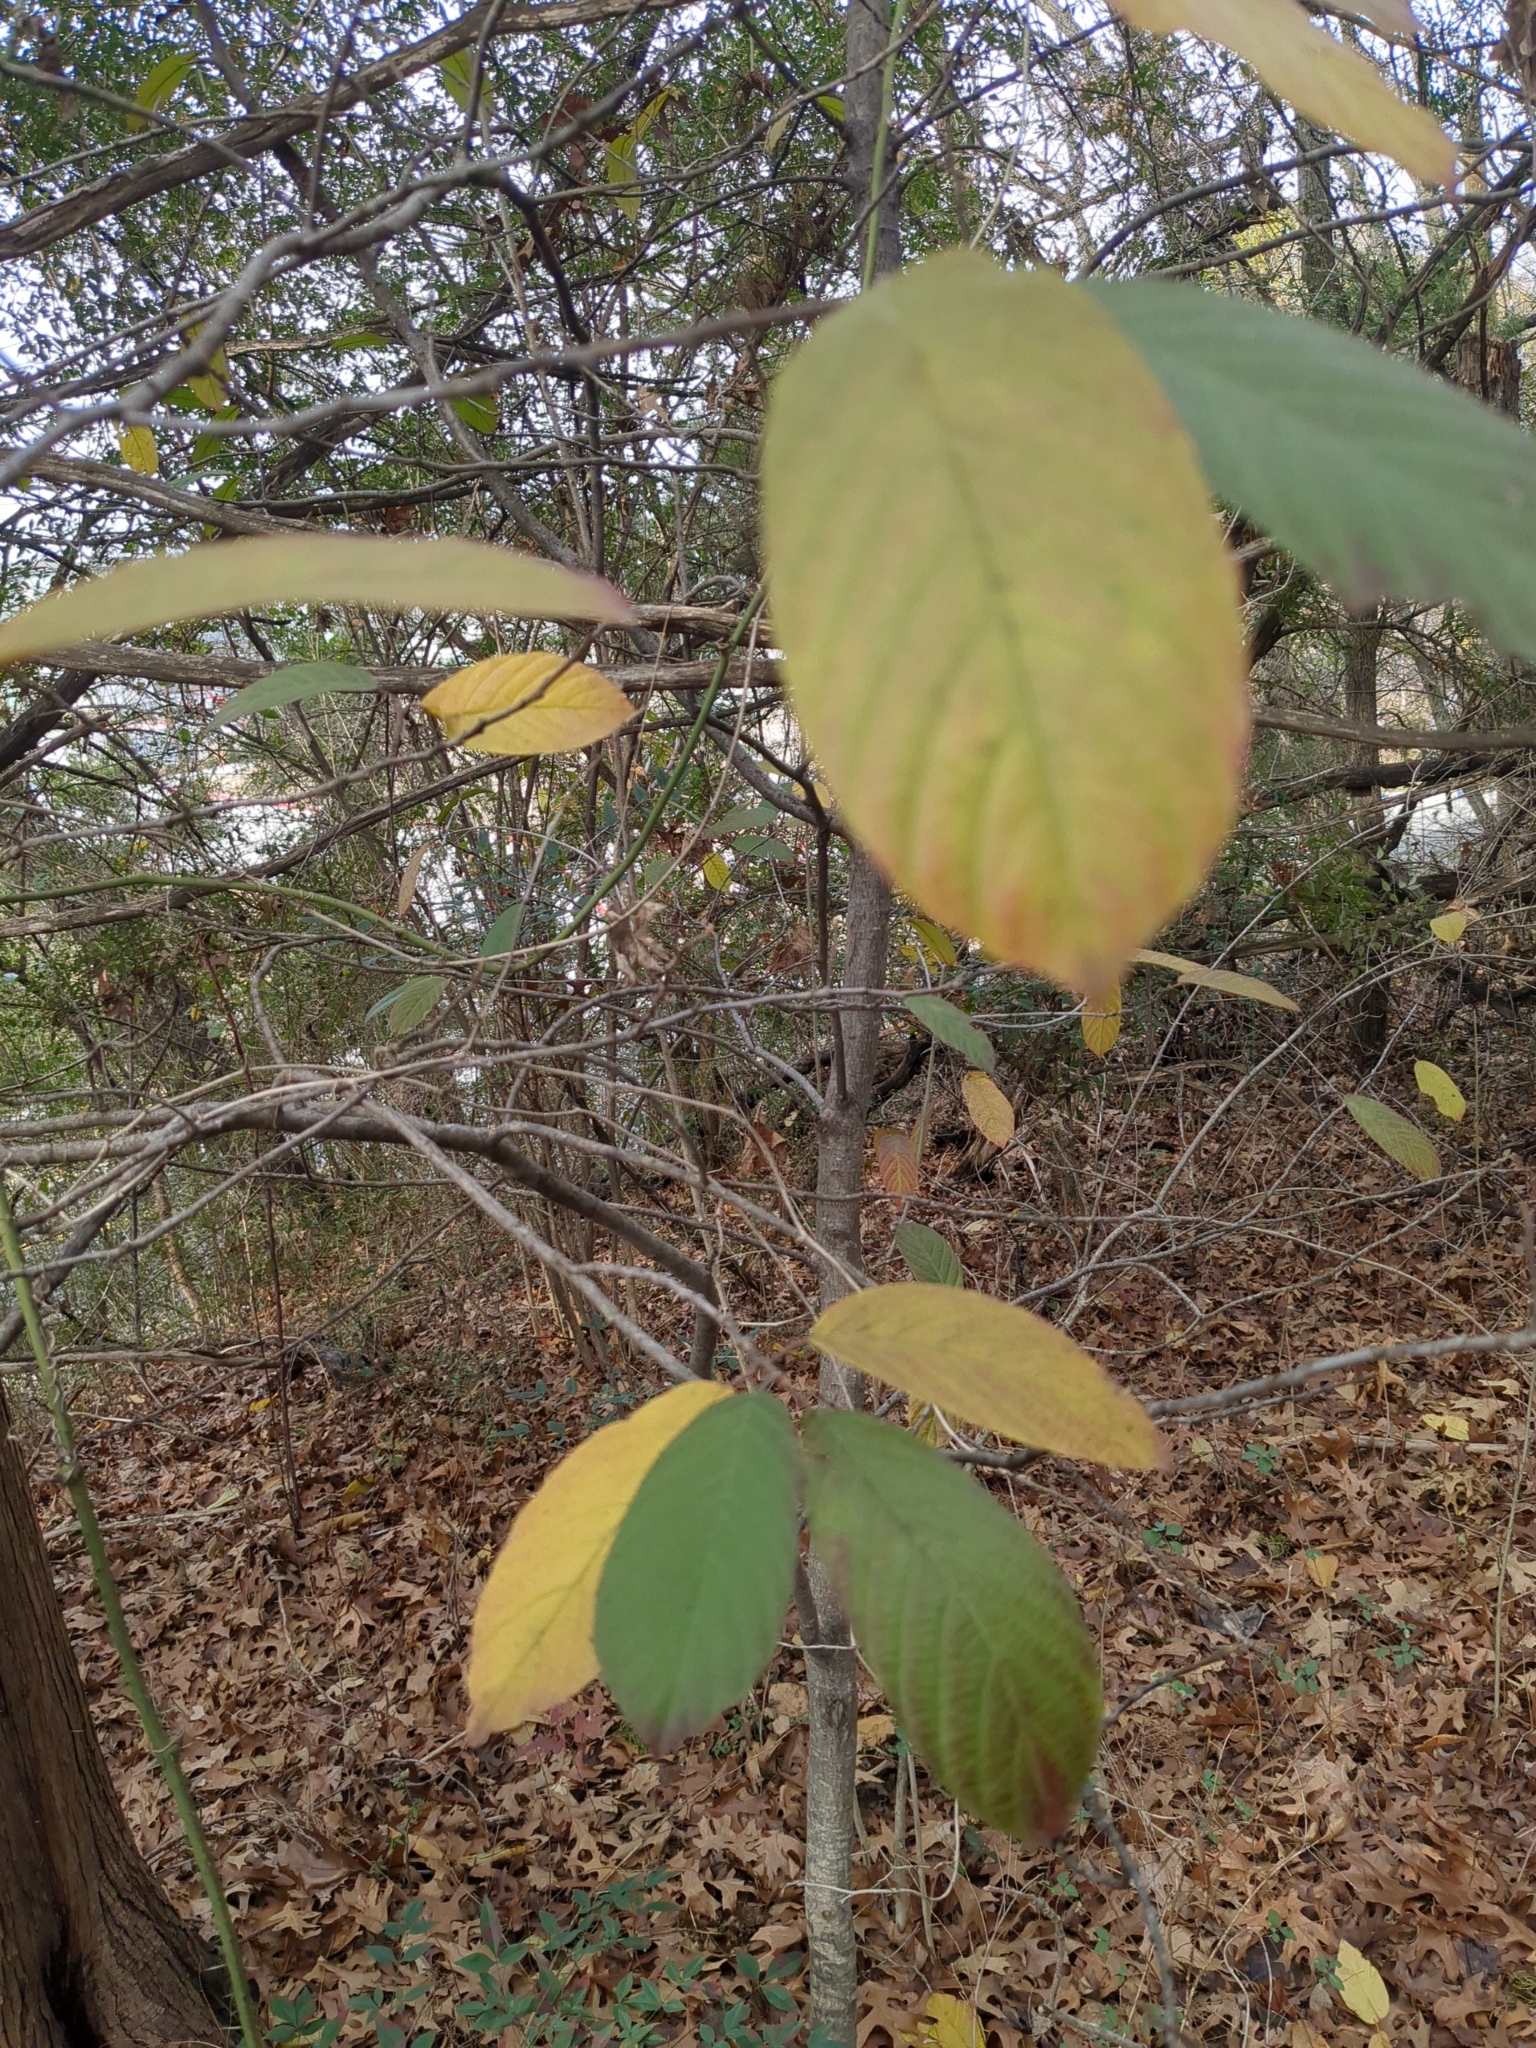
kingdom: Plantae
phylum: Tracheophyta
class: Magnoliopsida
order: Rosales
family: Rhamnaceae
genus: Frangula
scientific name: Frangula caroliniana
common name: Carolina buckthorn
